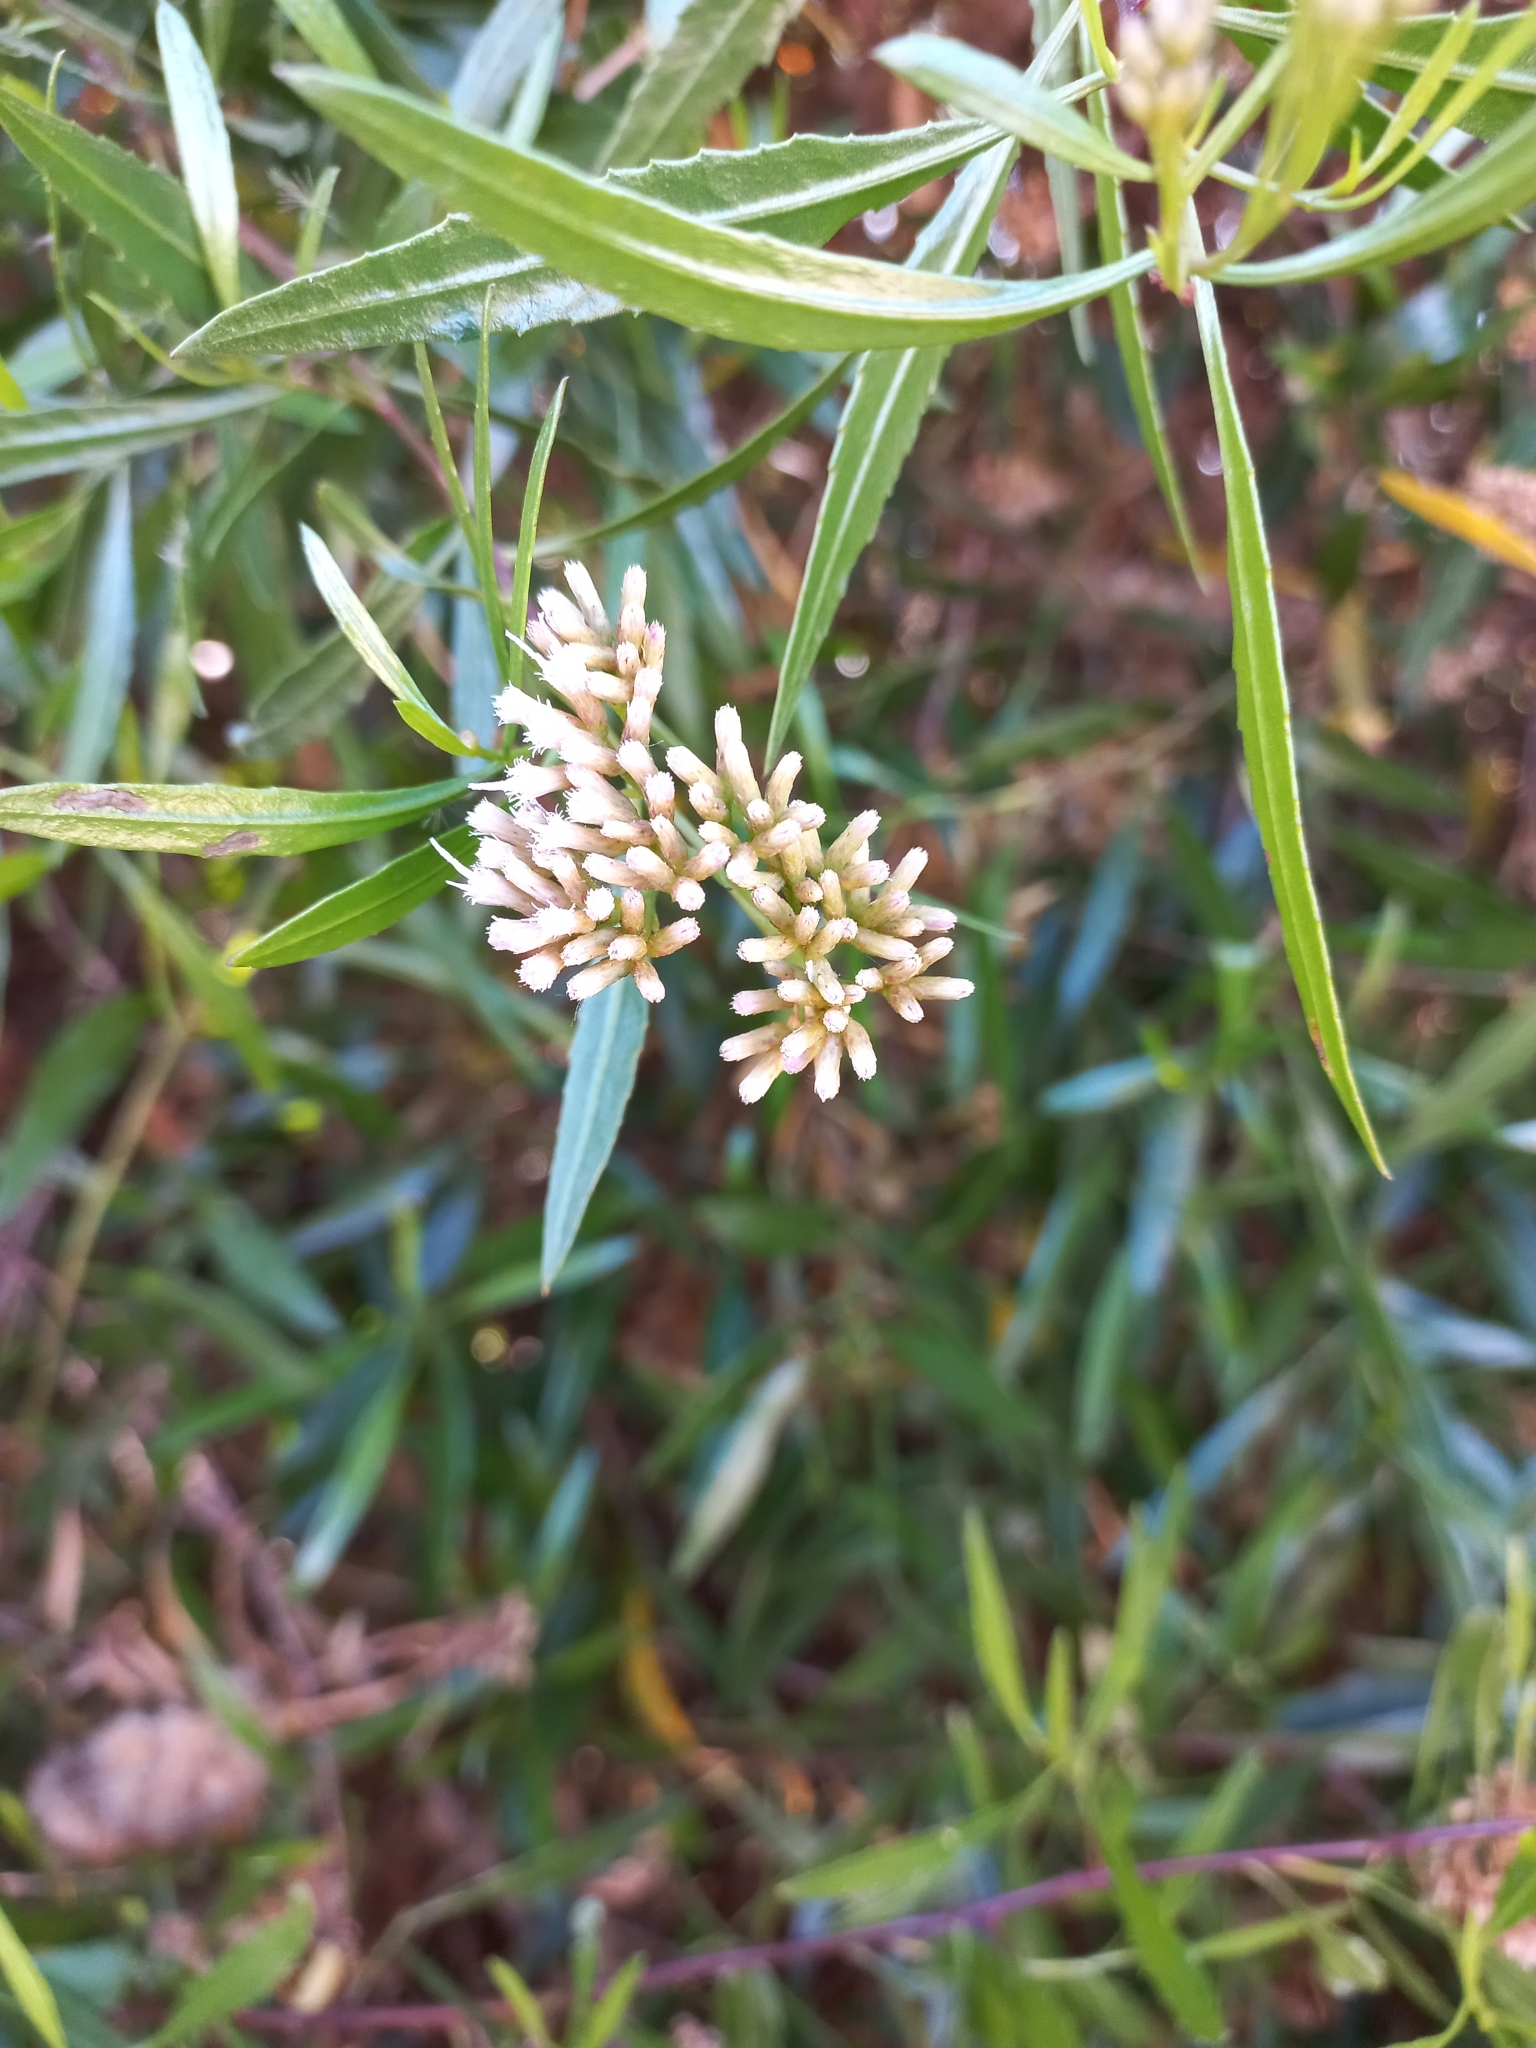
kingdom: Plantae
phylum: Tracheophyta
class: Magnoliopsida
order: Asterales
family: Asteraceae
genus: Tessaria
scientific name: Tessaria dodonaeifolia
